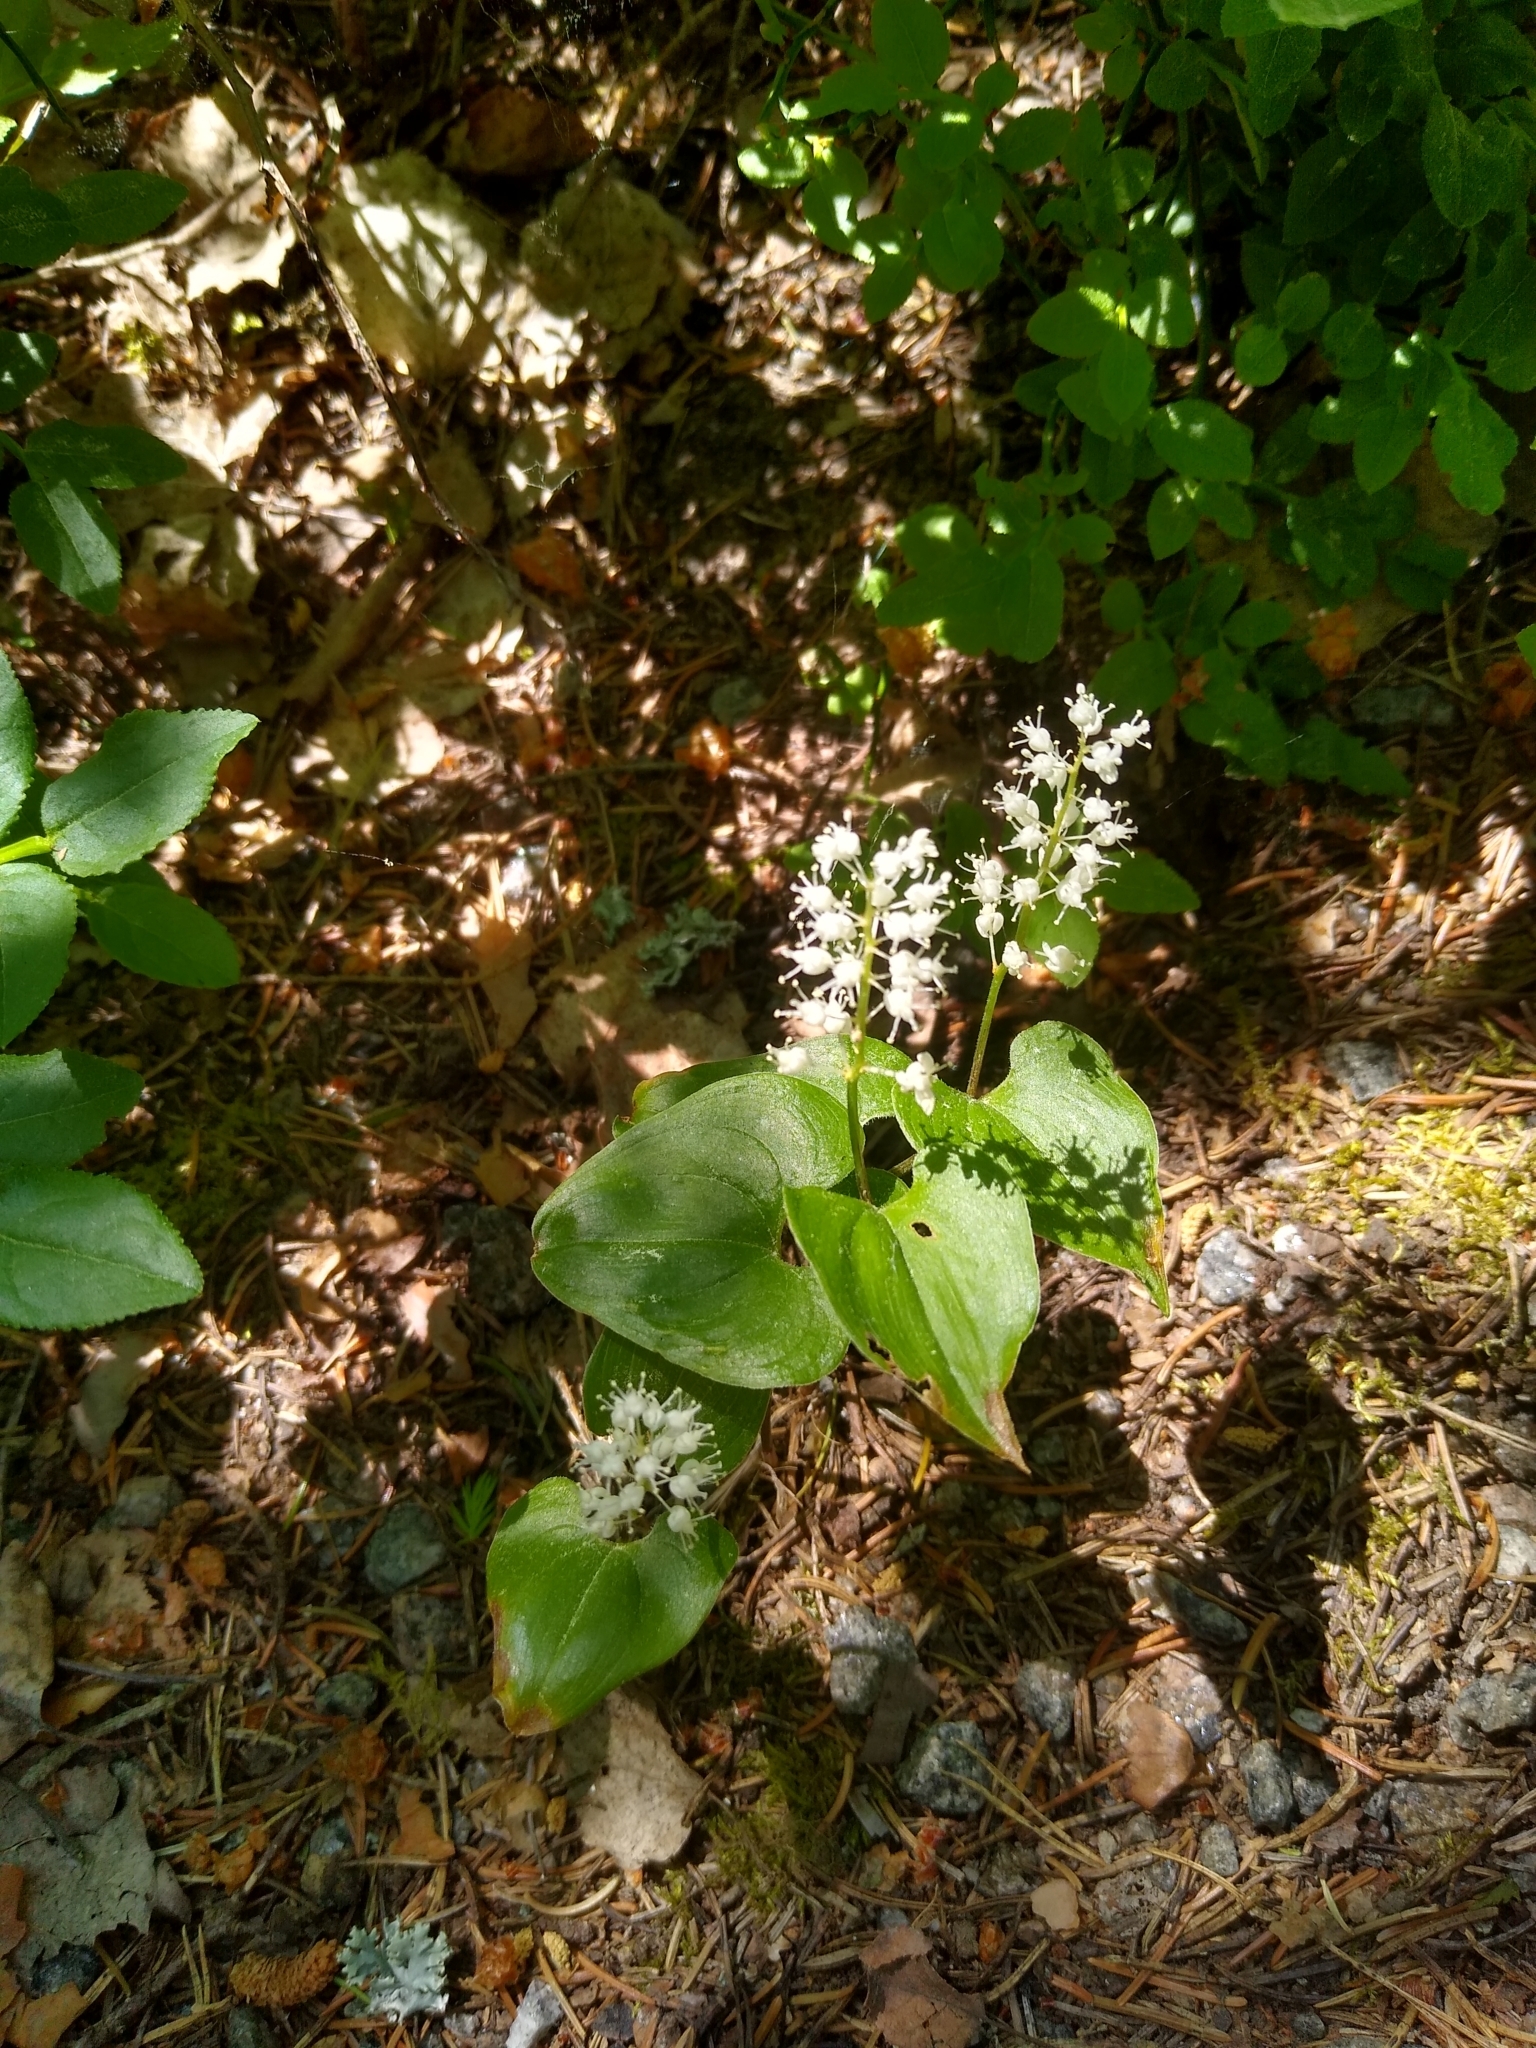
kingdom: Plantae
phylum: Tracheophyta
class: Liliopsida
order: Asparagales
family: Asparagaceae
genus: Maianthemum
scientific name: Maianthemum bifolium
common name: May lily
